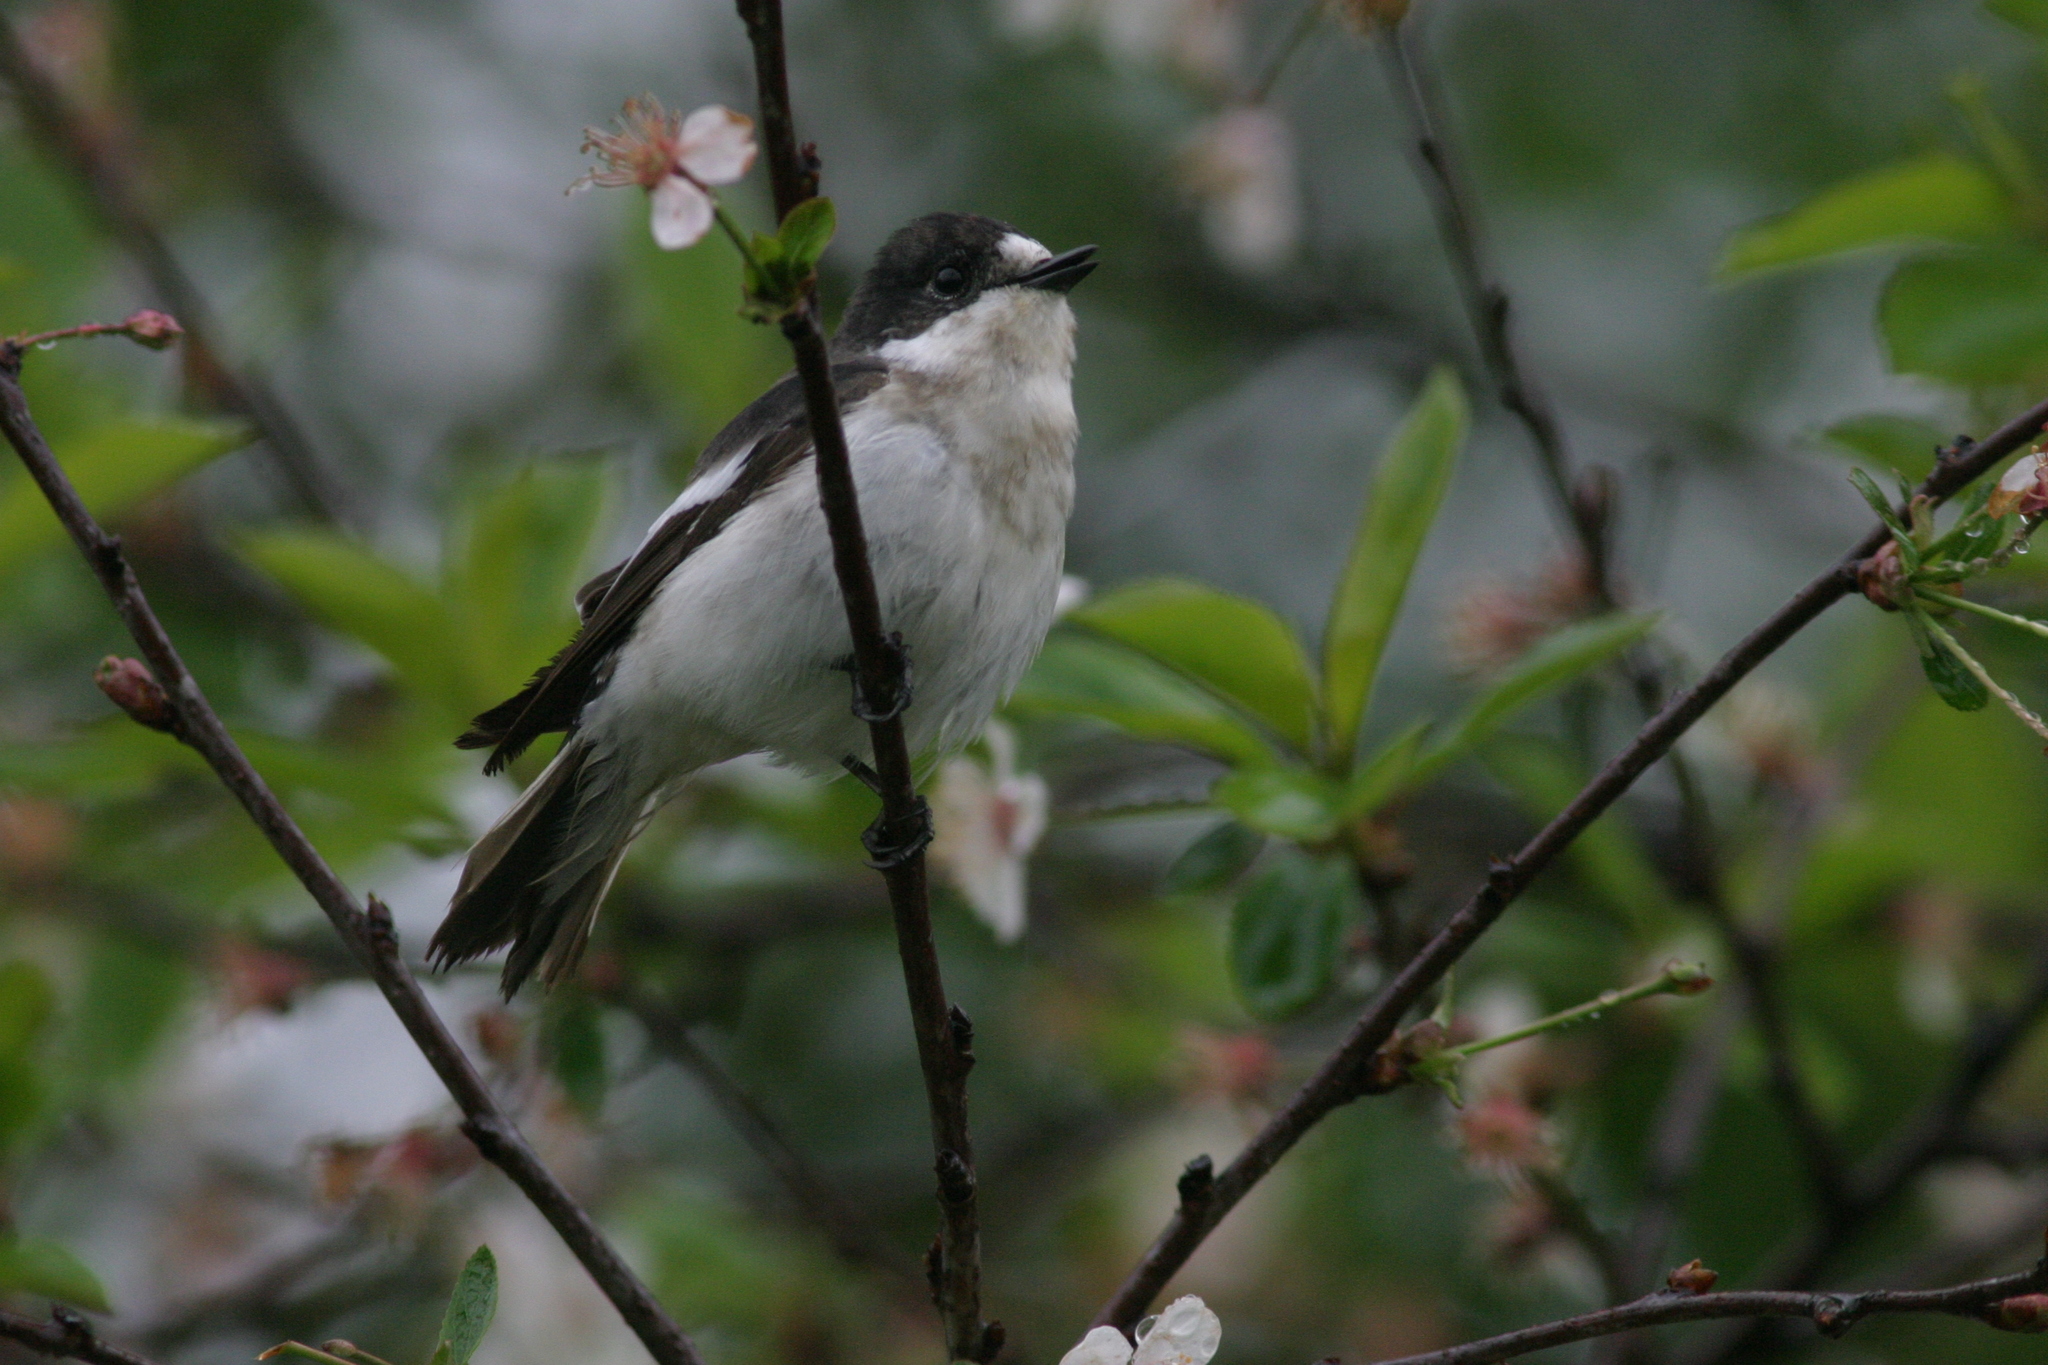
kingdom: Animalia
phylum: Chordata
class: Aves
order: Passeriformes
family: Muscicapidae
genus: Ficedula
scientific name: Ficedula hypoleuca
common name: European pied flycatcher
